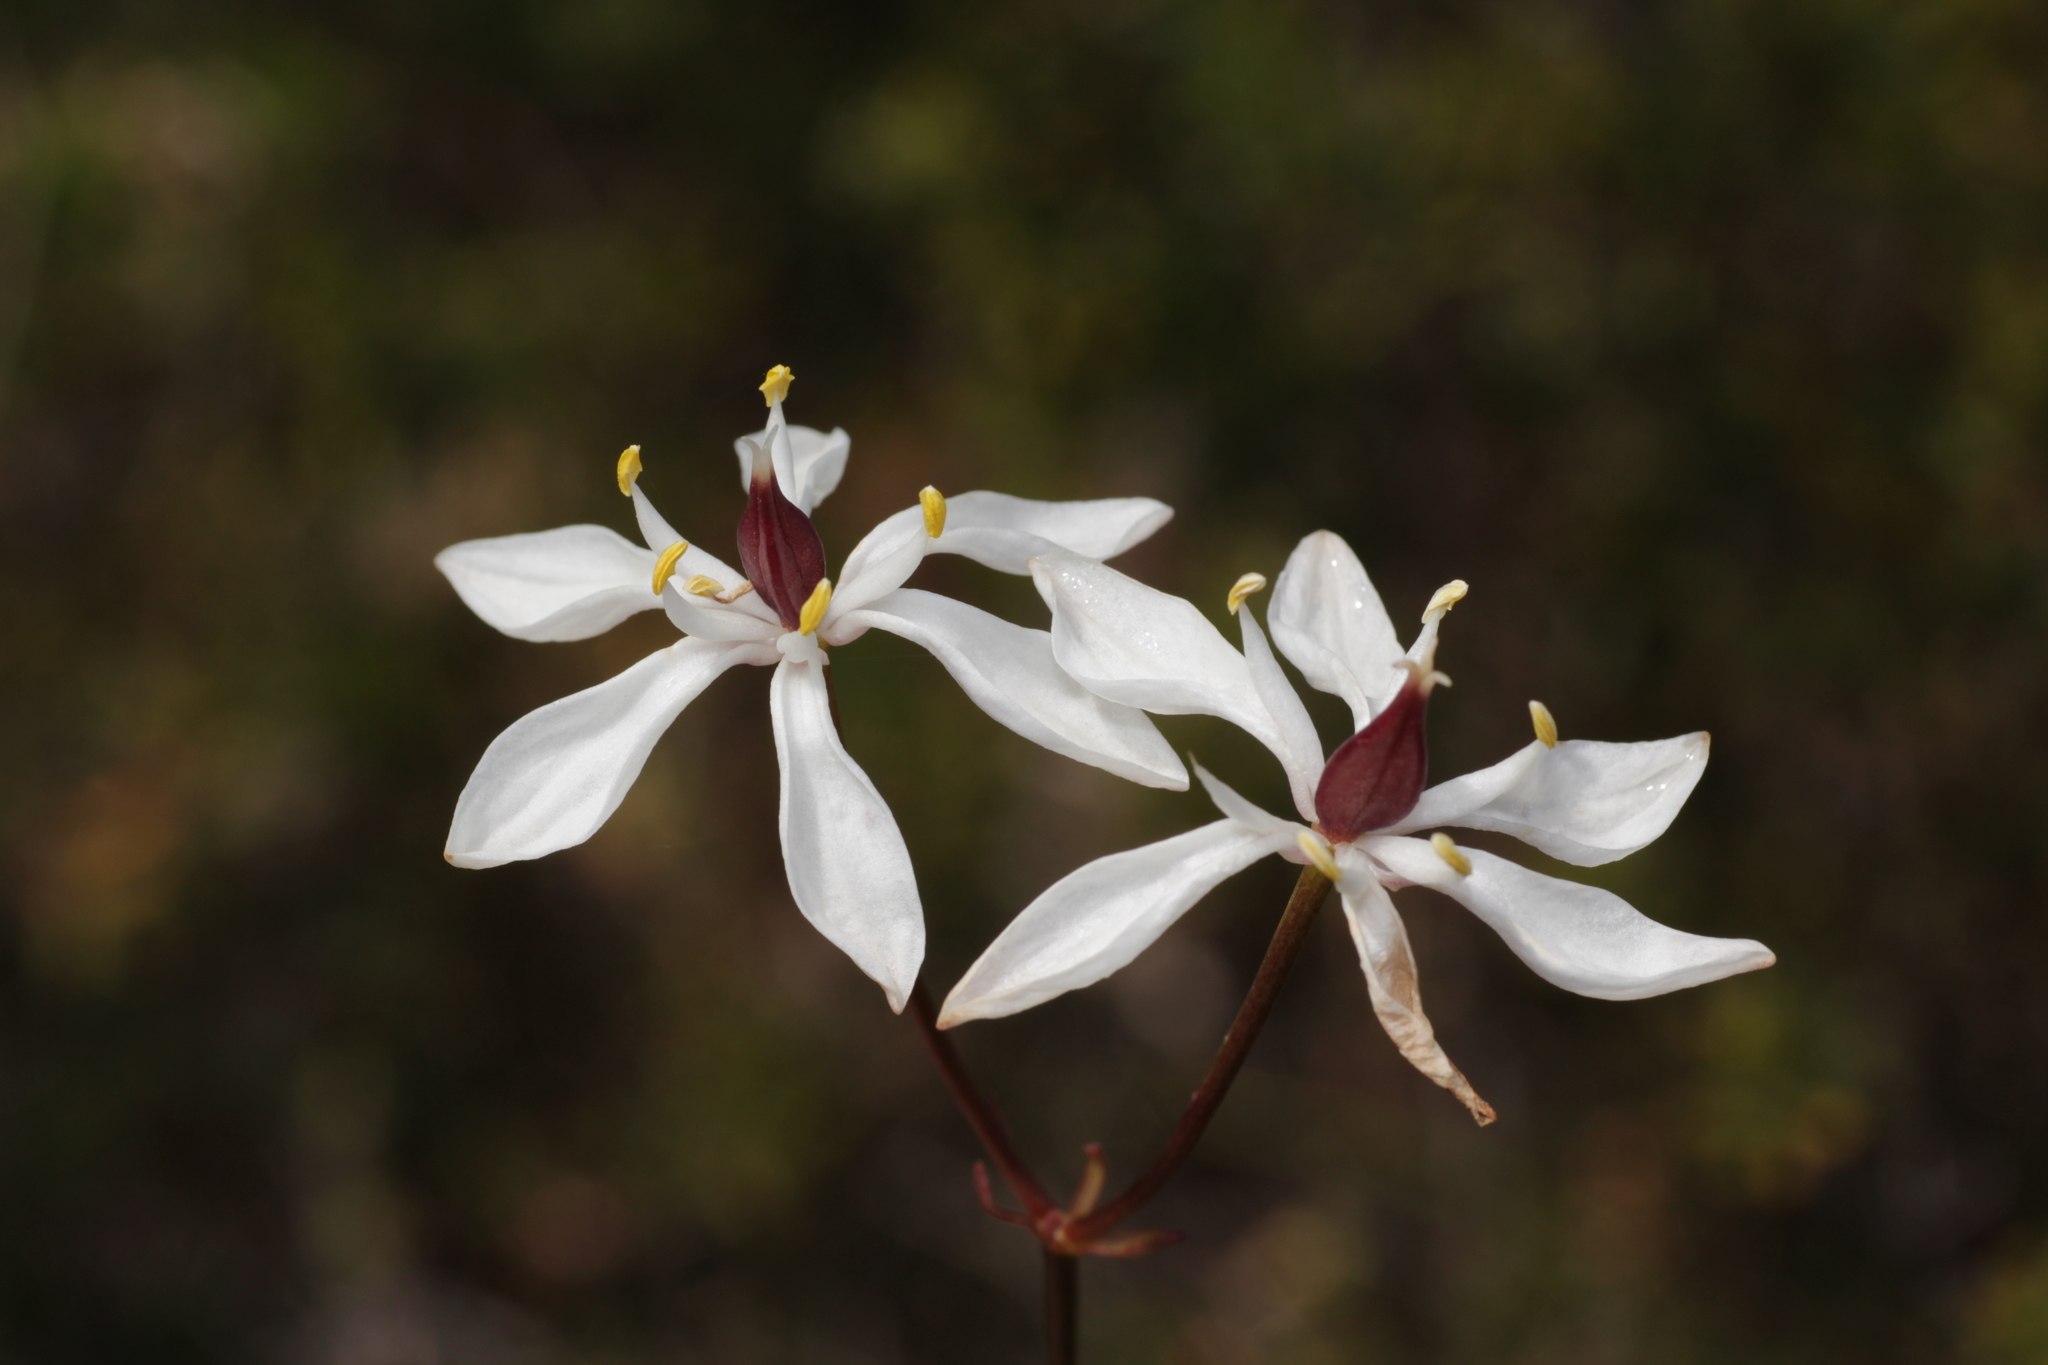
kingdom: Plantae
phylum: Tracheophyta
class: Liliopsida
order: Liliales
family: Colchicaceae
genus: Burchardia
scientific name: Burchardia congesta
